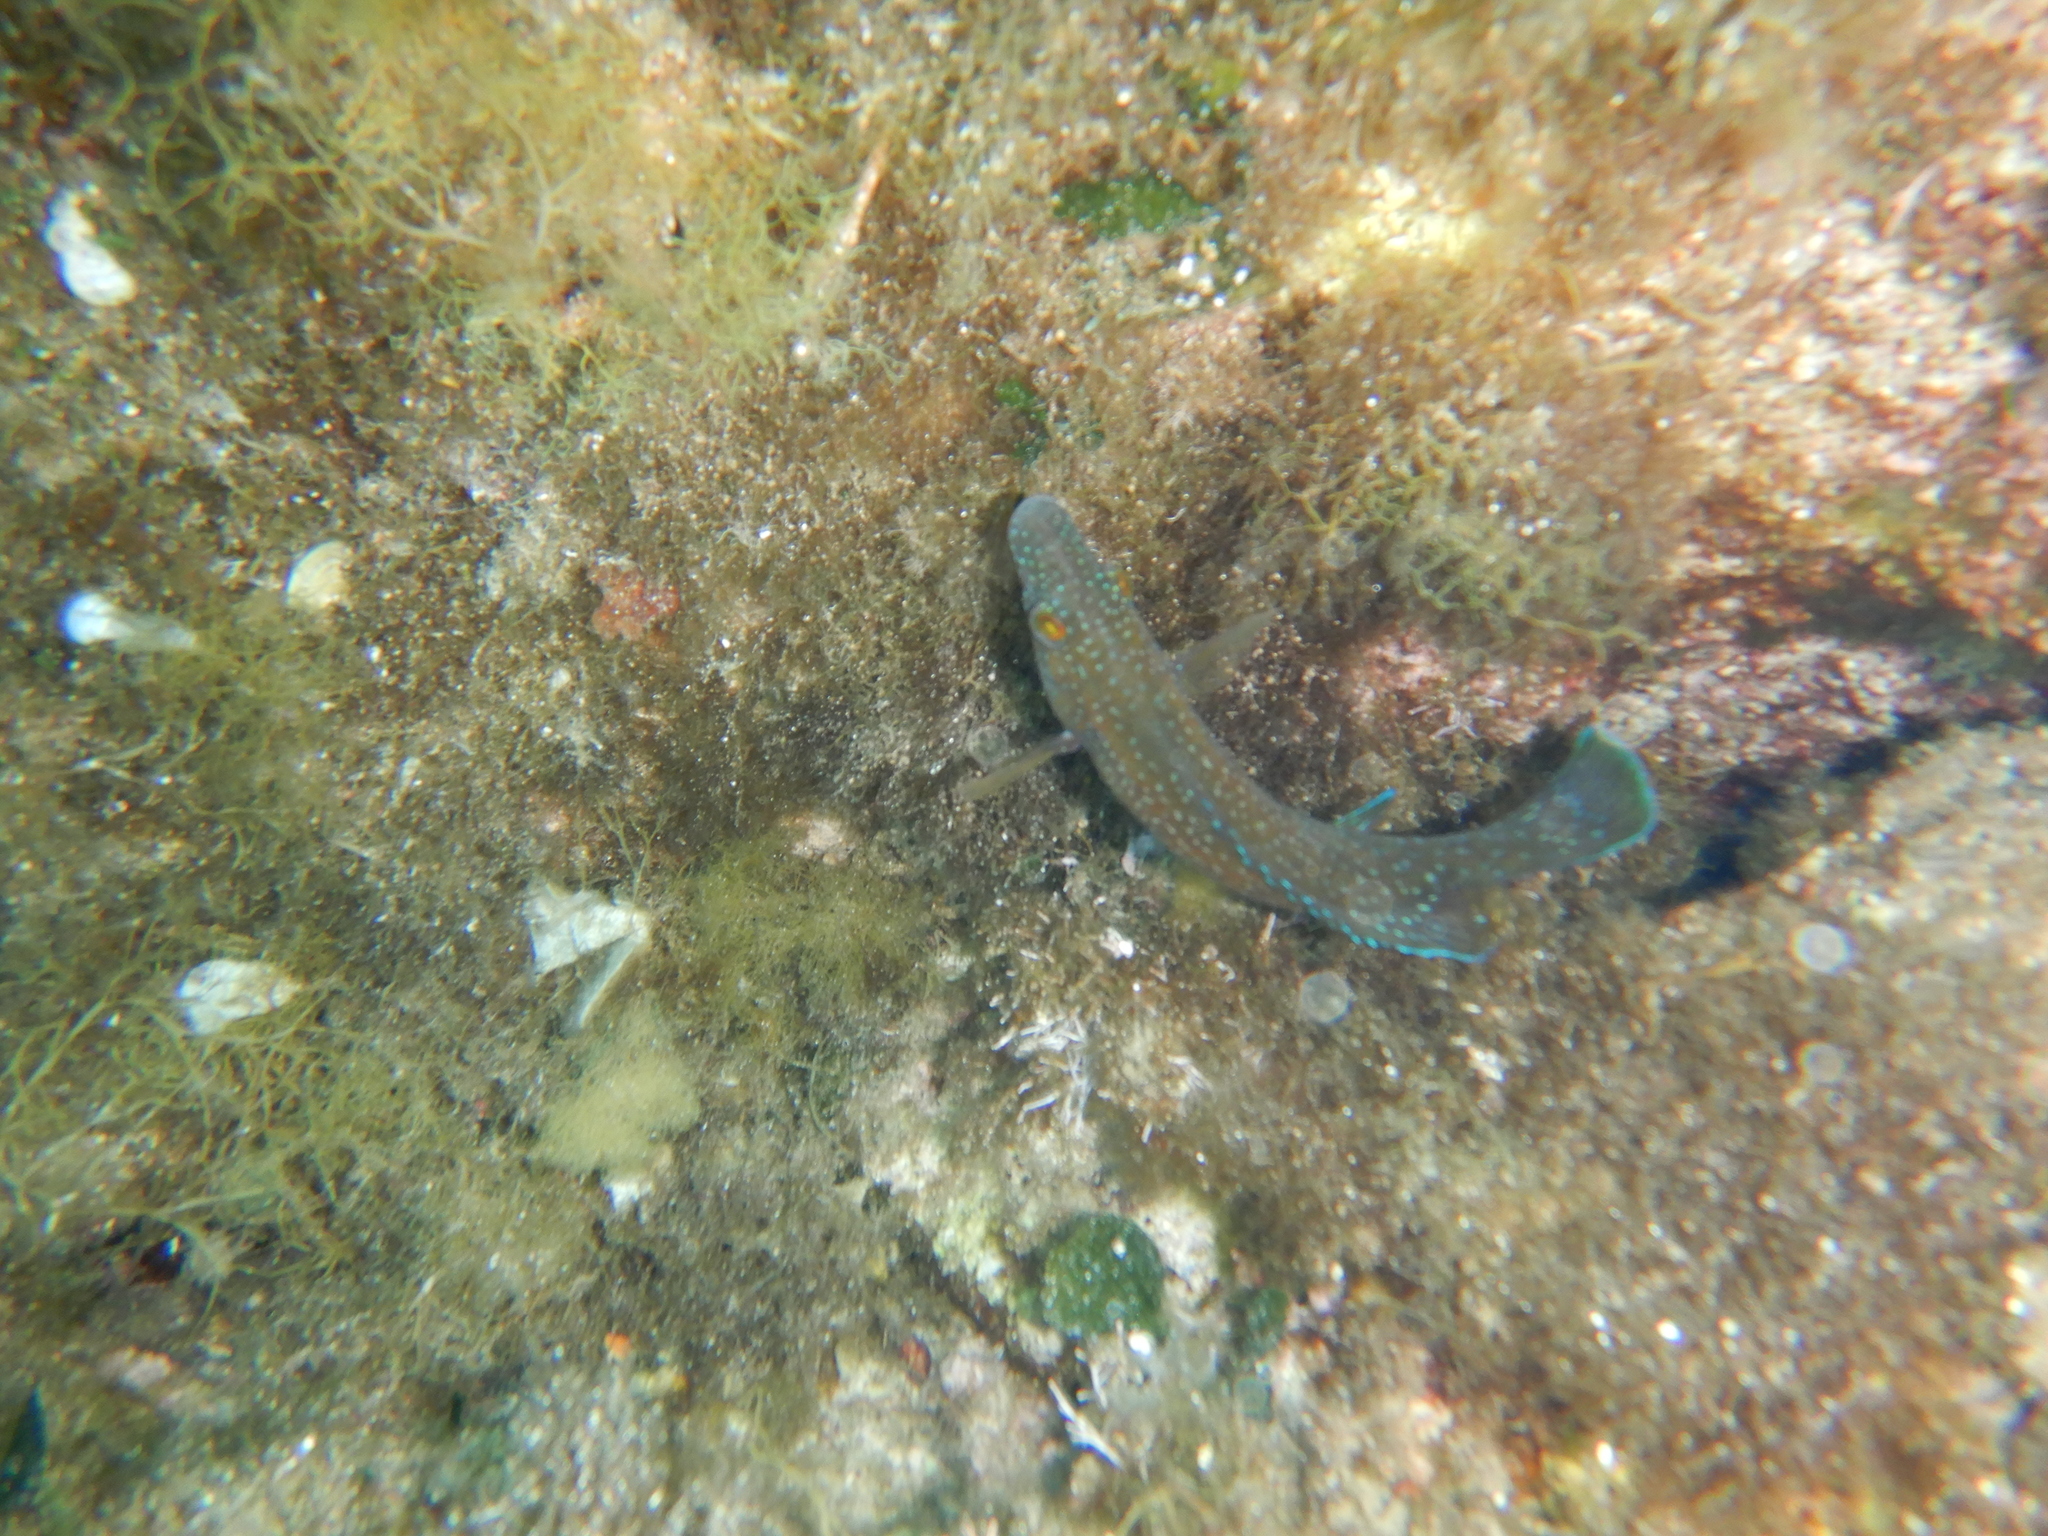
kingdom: Animalia
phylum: Chordata
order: Perciformes
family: Labridae
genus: Labrus
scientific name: Labrus merula
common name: Brown wrasse
